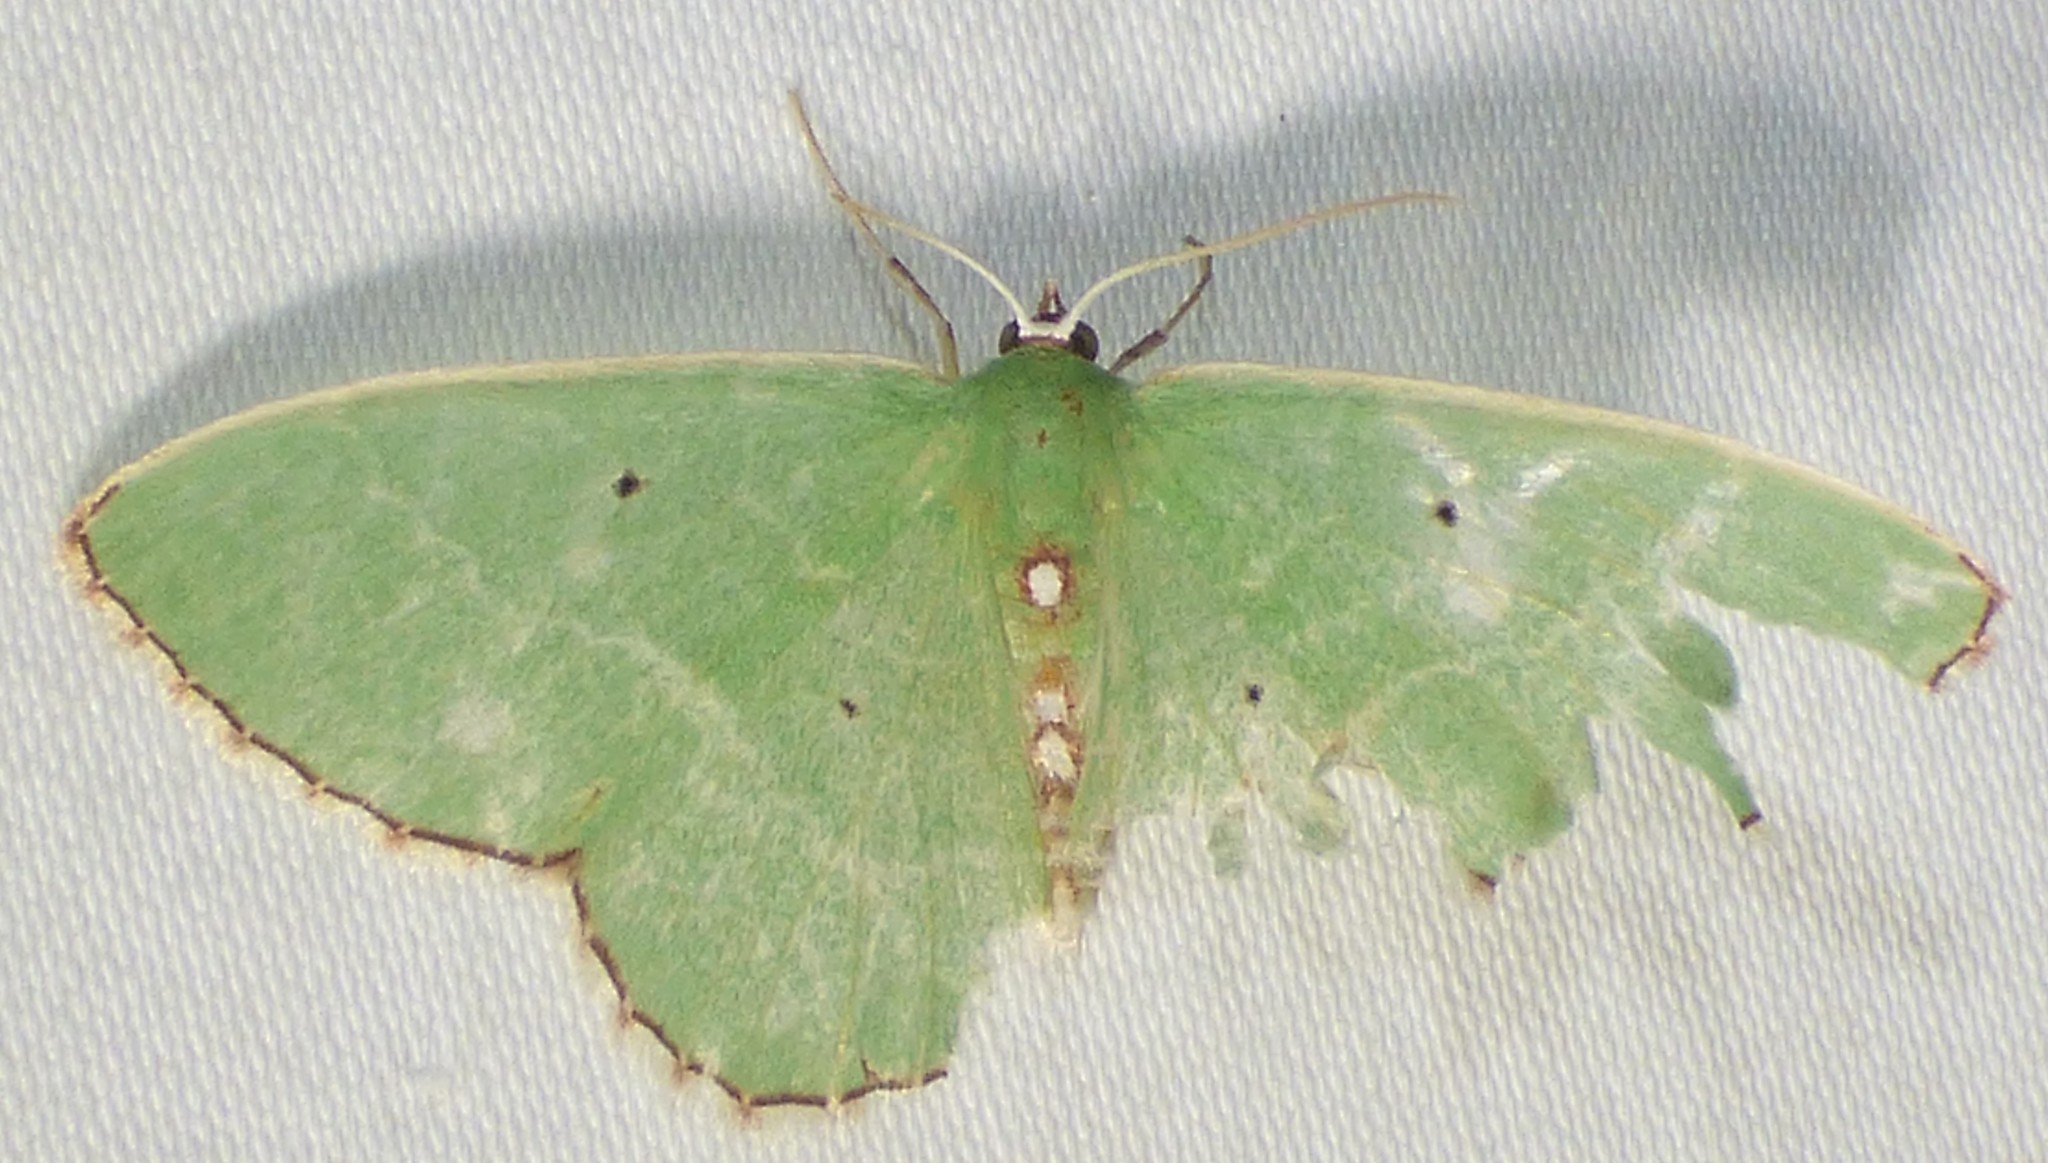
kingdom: Animalia
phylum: Arthropoda
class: Insecta
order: Lepidoptera
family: Geometridae
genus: Nemoria
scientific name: Nemoria lixaria
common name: Red-bordered emerald
